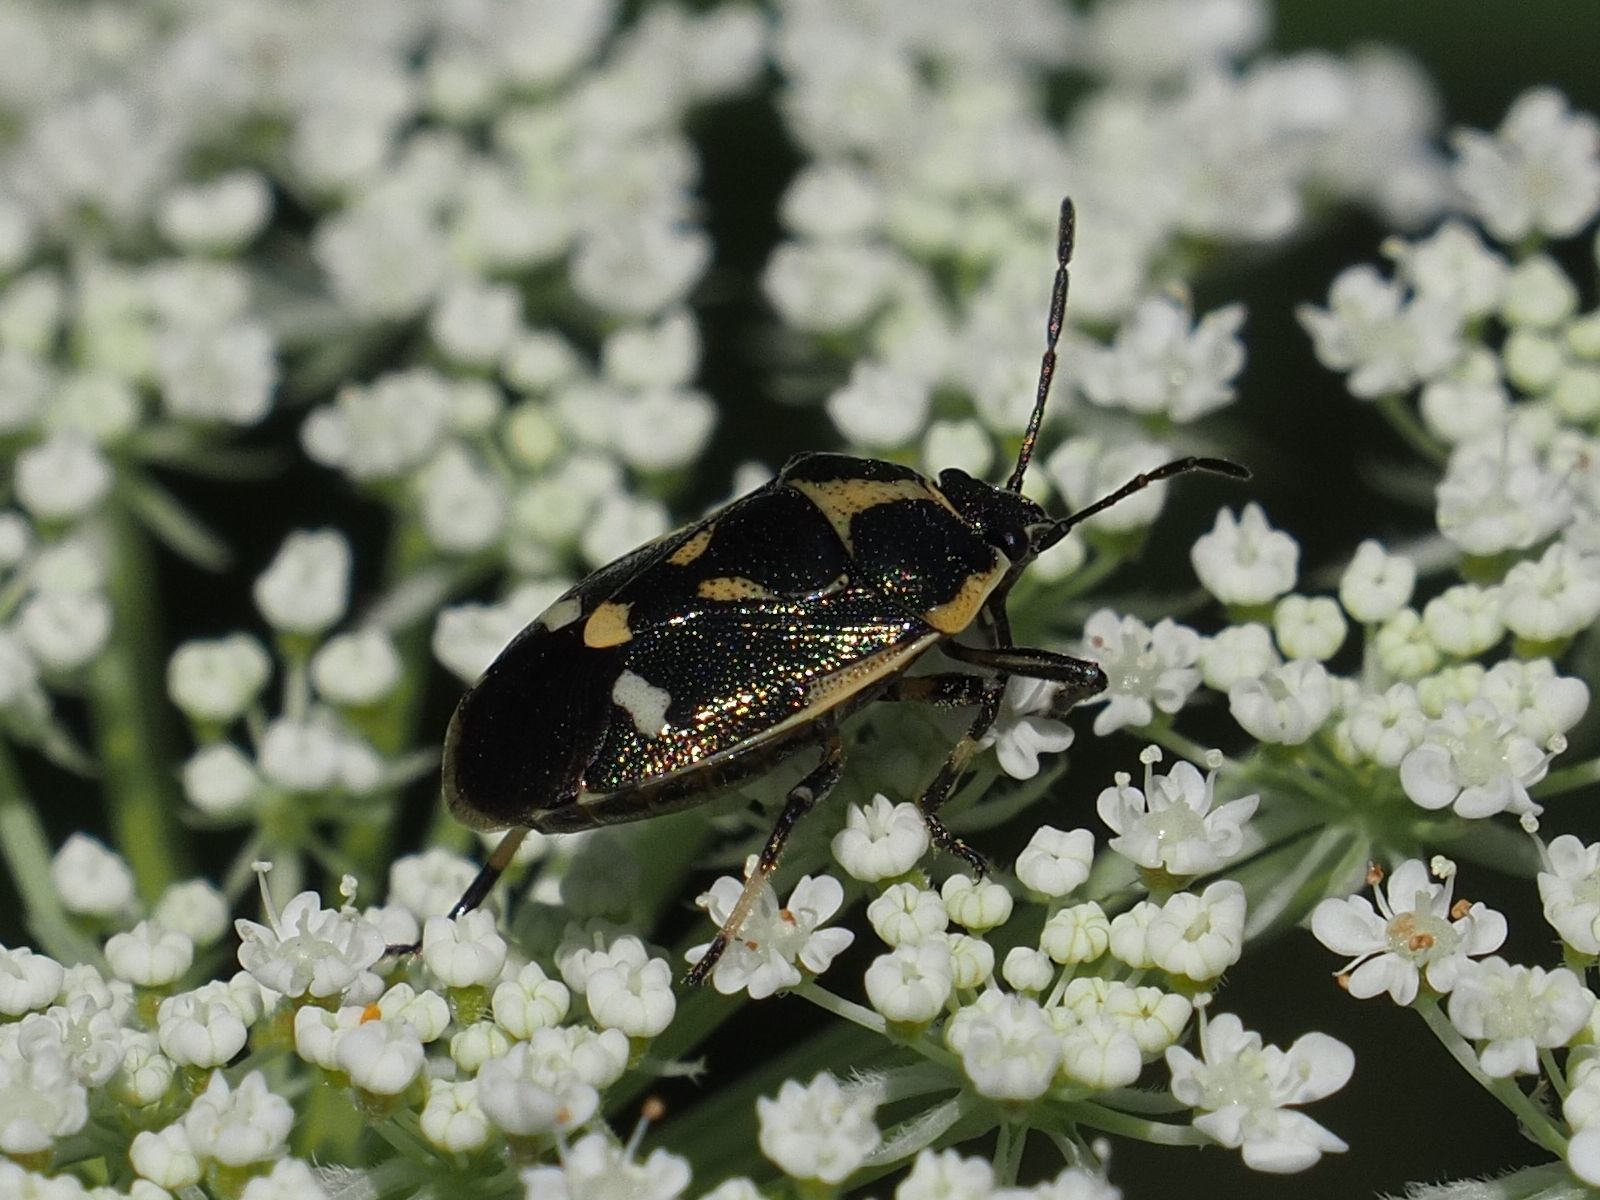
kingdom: Animalia
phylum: Arthropoda
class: Insecta
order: Hemiptera
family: Pentatomidae
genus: Eurydema
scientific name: Eurydema oleracea
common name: Cabbage bug
